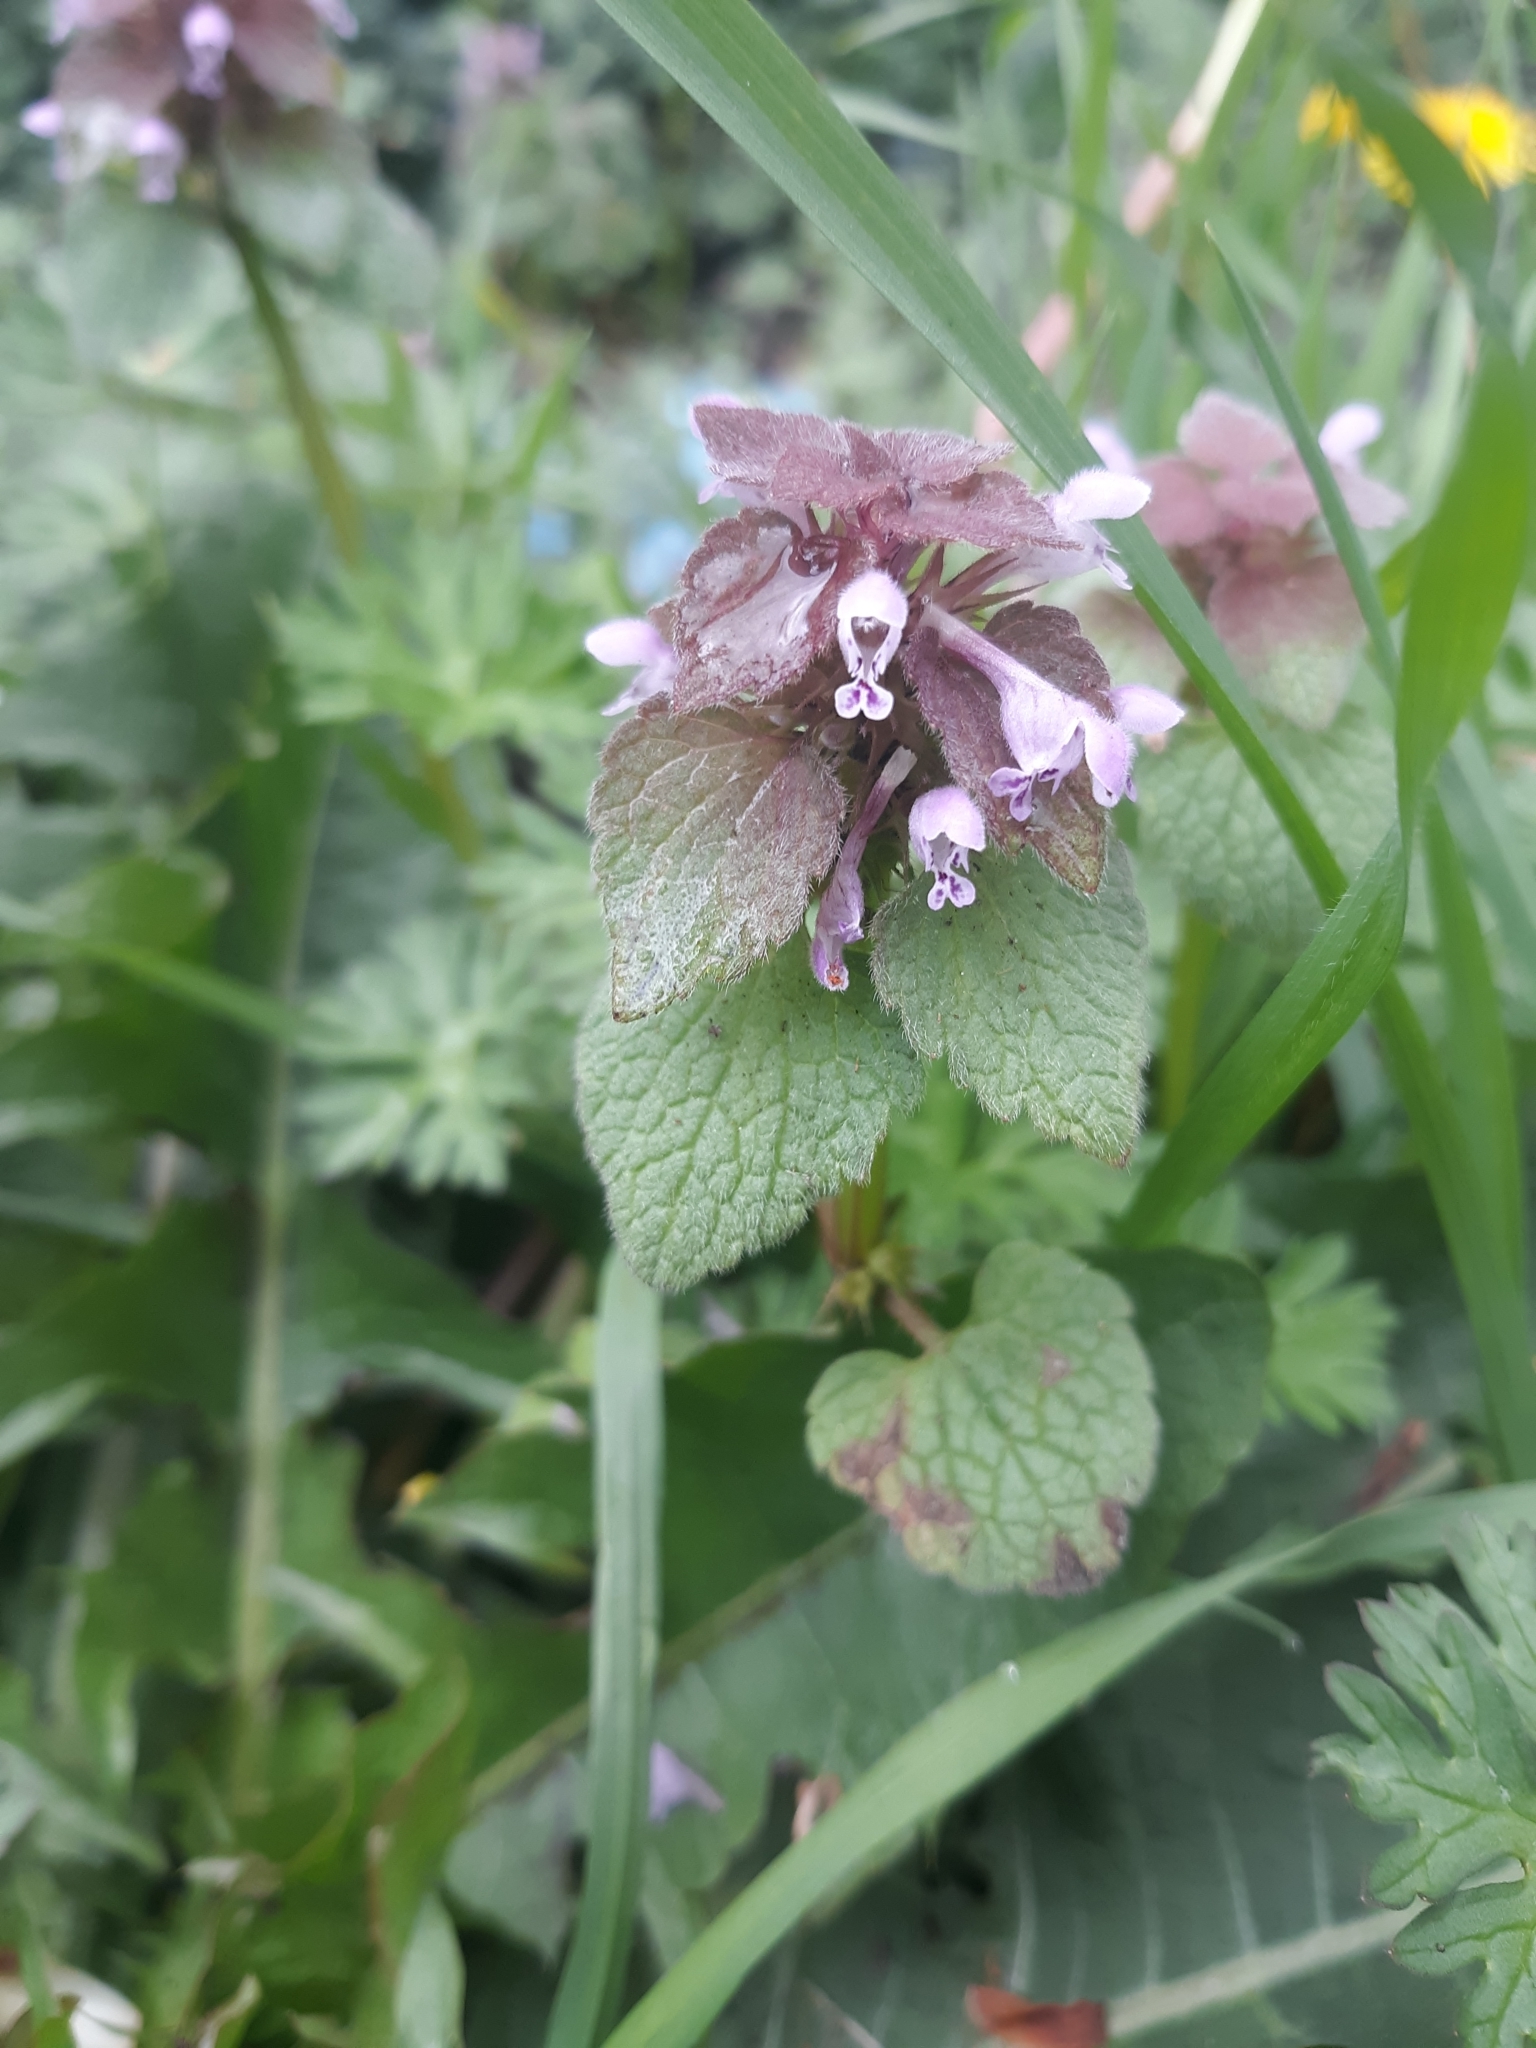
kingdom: Plantae
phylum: Tracheophyta
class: Magnoliopsida
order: Lamiales
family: Lamiaceae
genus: Lamium
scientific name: Lamium purpureum
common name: Red dead-nettle
